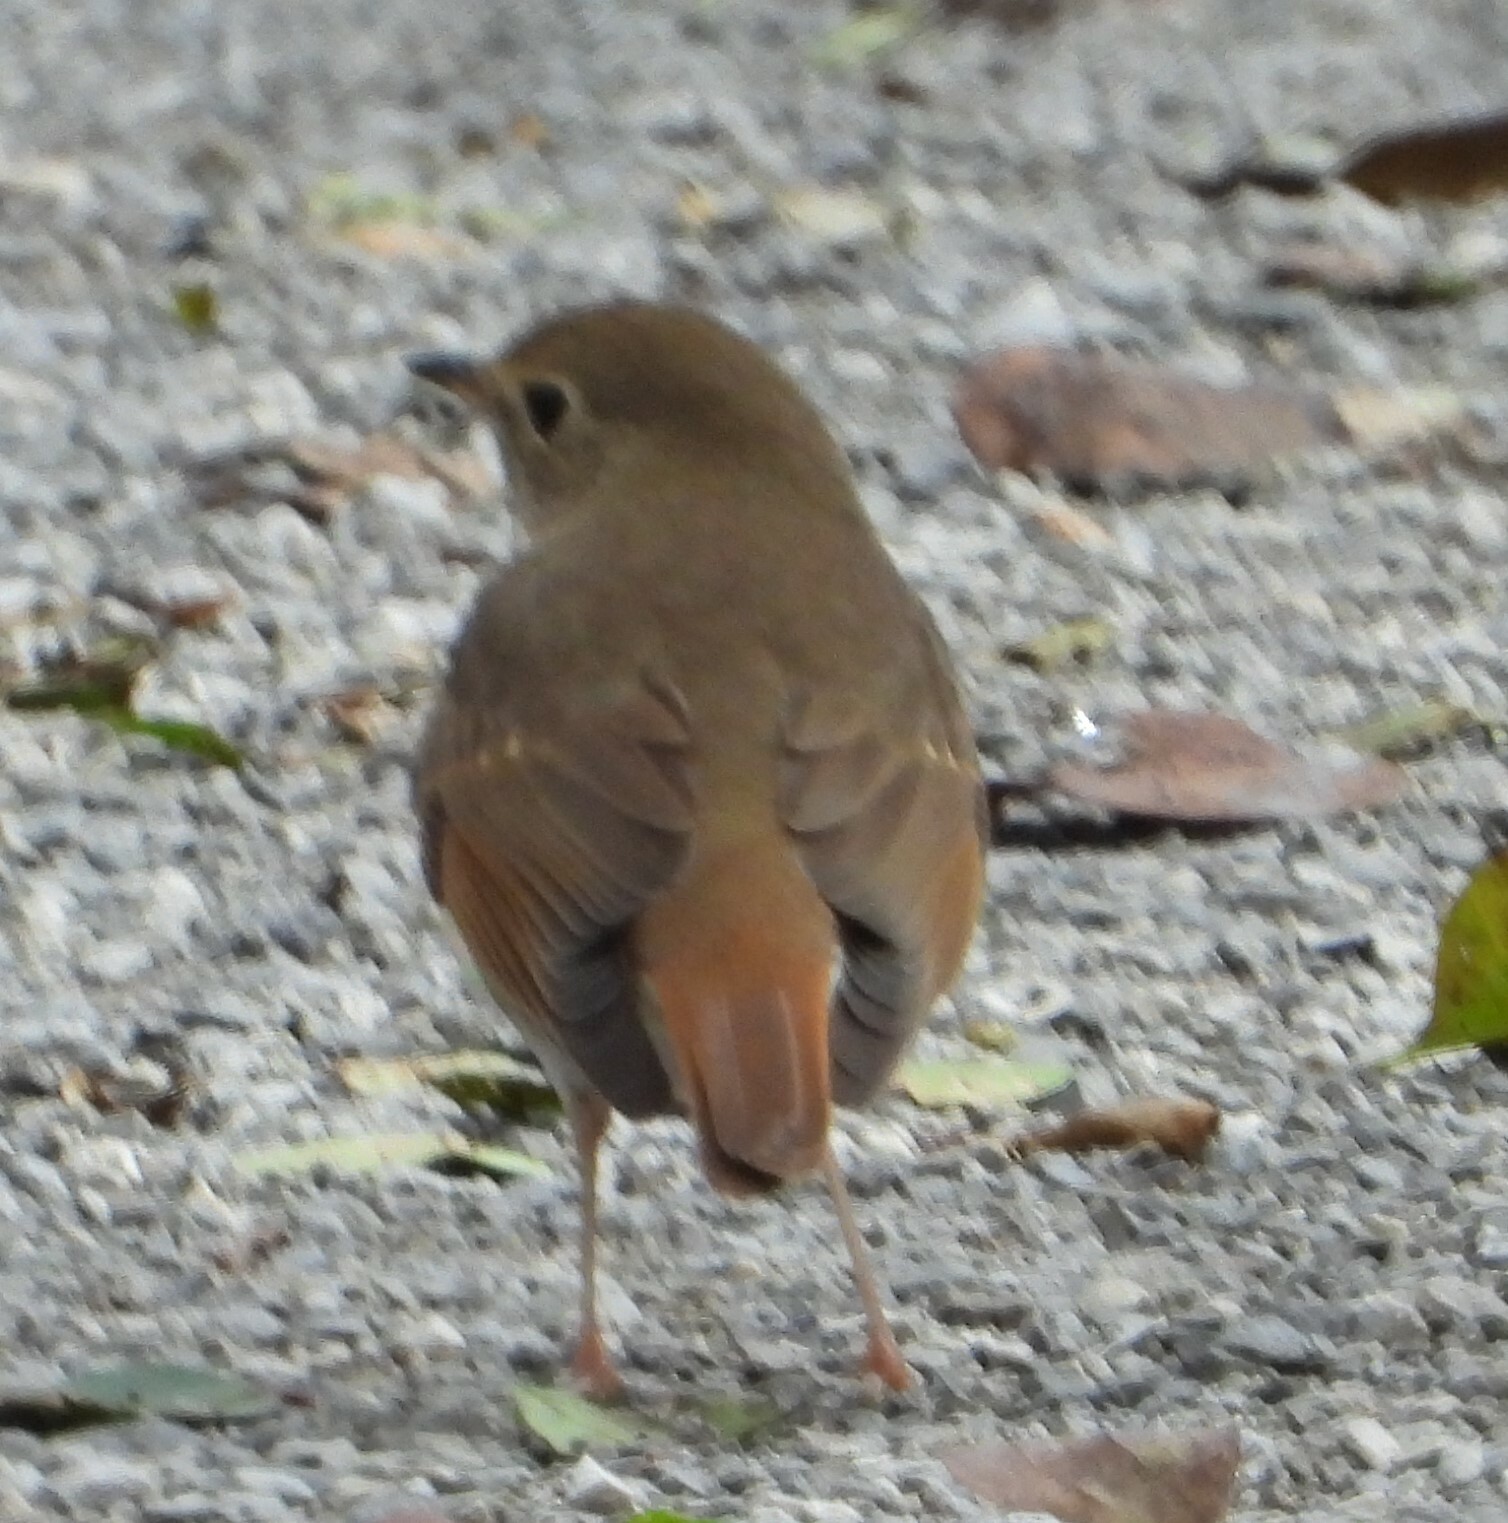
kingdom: Animalia
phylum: Chordata
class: Aves
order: Passeriformes
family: Turdidae
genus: Catharus
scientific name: Catharus guttatus
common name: Hermit thrush
